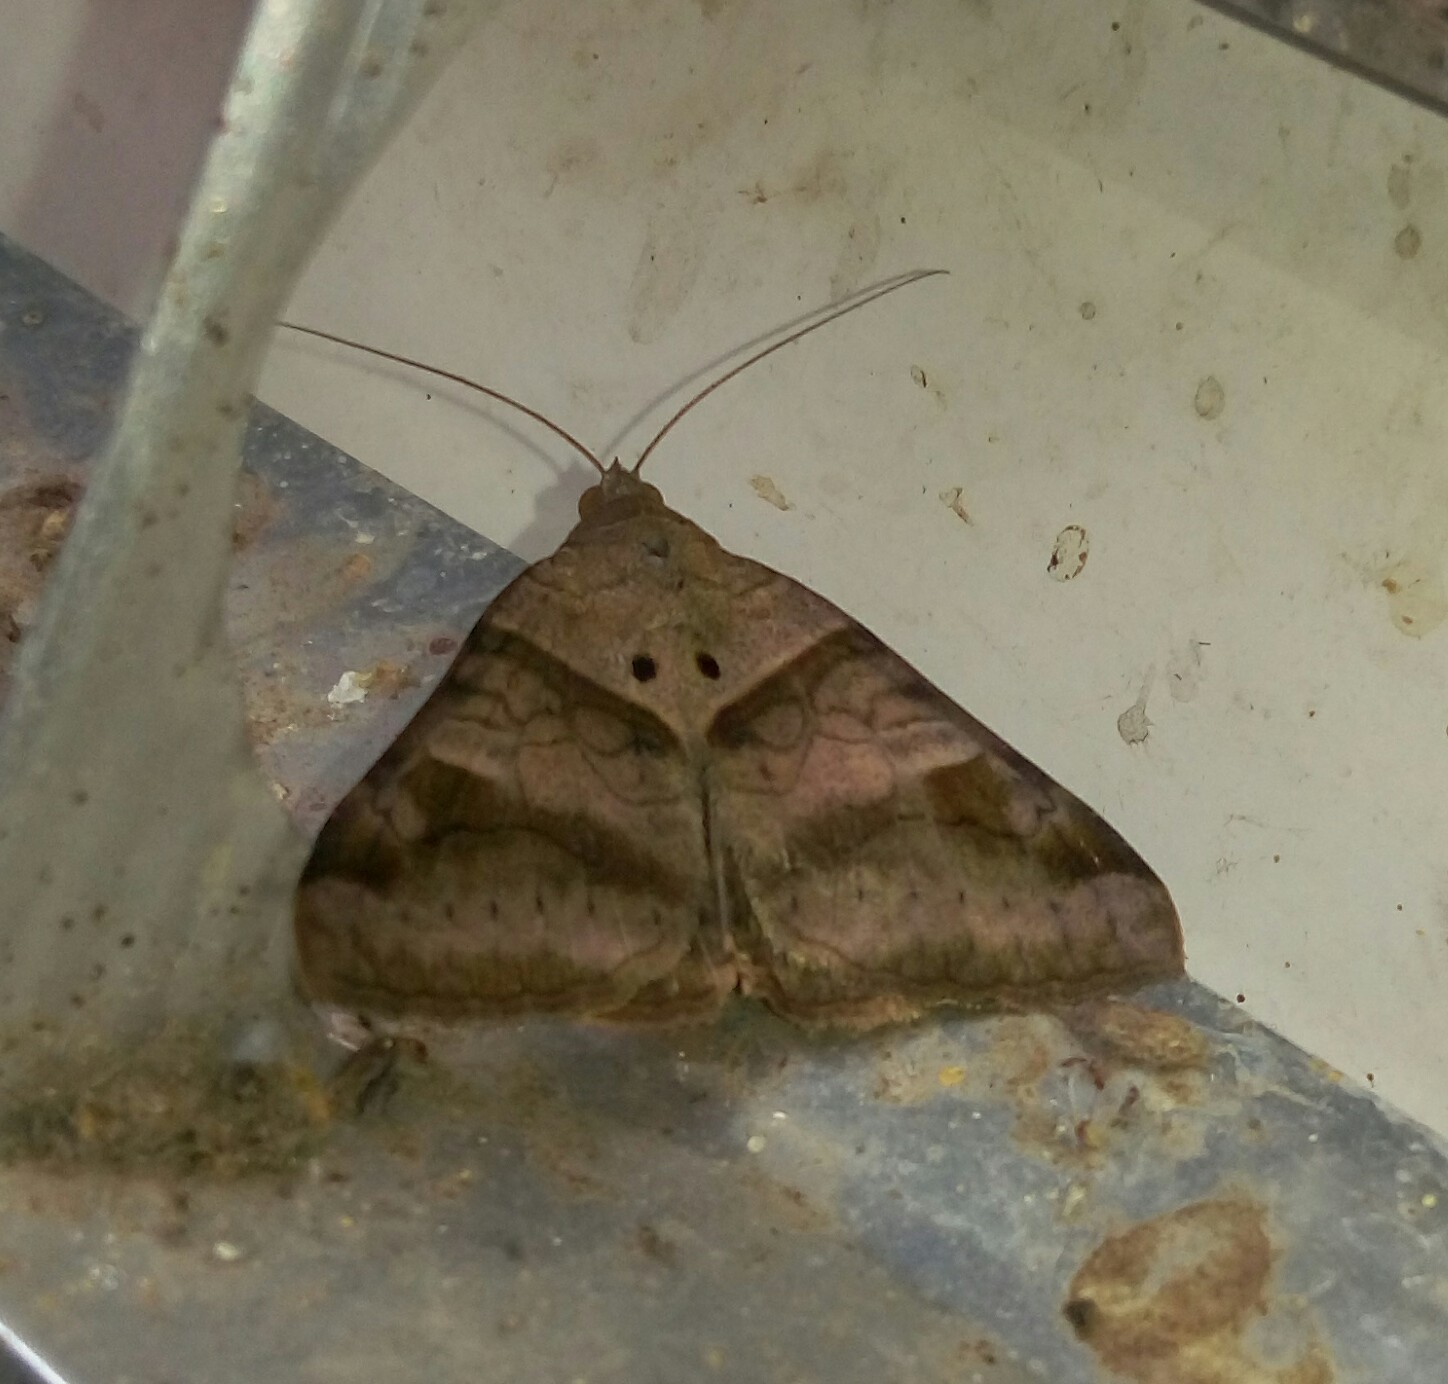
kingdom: Animalia
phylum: Arthropoda
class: Insecta
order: Lepidoptera
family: Erebidae
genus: Mocis
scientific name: Mocis undata
